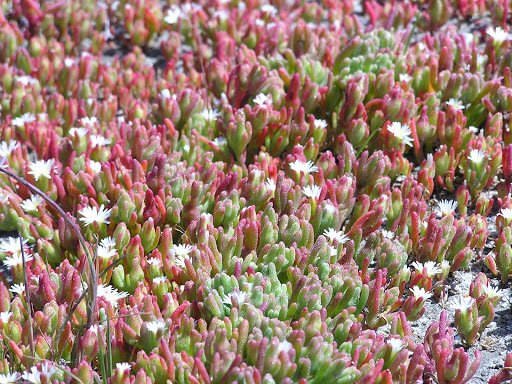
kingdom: Plantae
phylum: Tracheophyta
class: Magnoliopsida
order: Caryophyllales
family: Aizoaceae
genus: Mesembryanthemum
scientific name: Mesembryanthemum nodiflorum
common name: Slenderleaf iceplant
